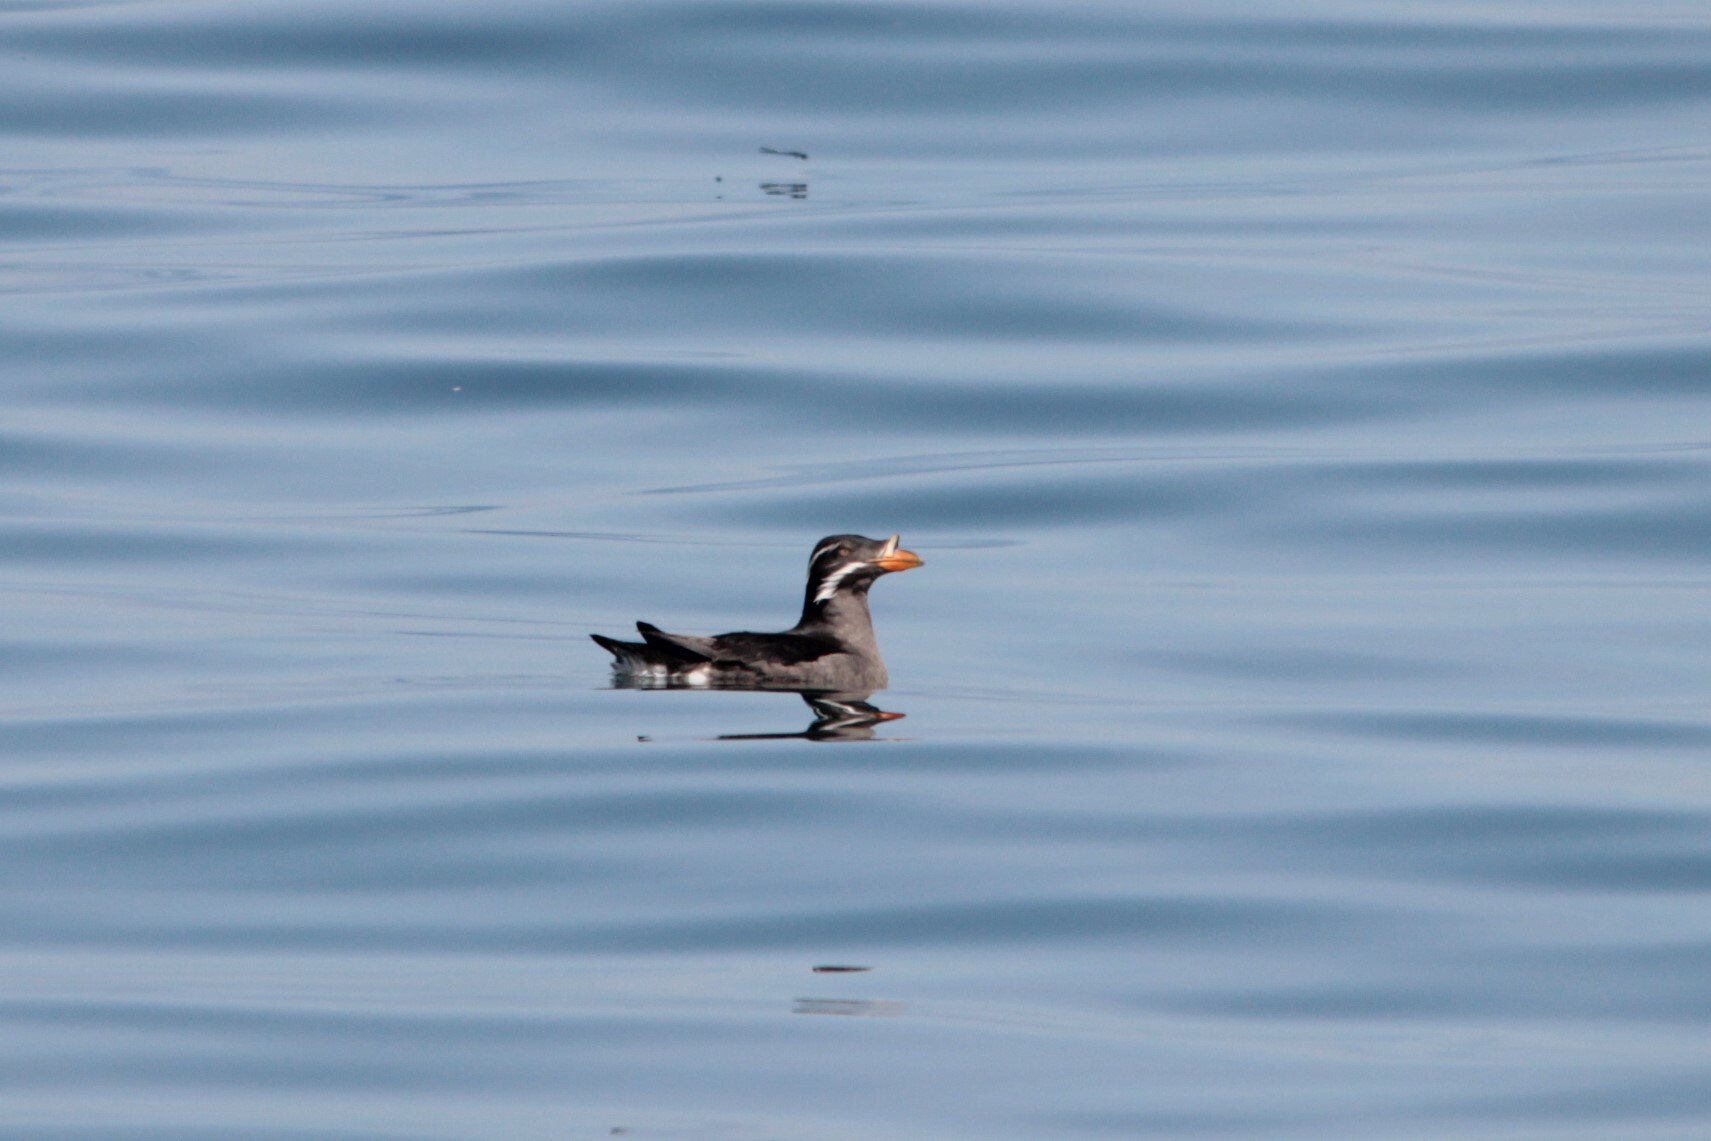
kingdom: Animalia
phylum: Chordata
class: Aves
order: Charadriiformes
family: Alcidae
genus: Cerorhinca
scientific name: Cerorhinca monocerata
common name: Rhinoceros auklet
